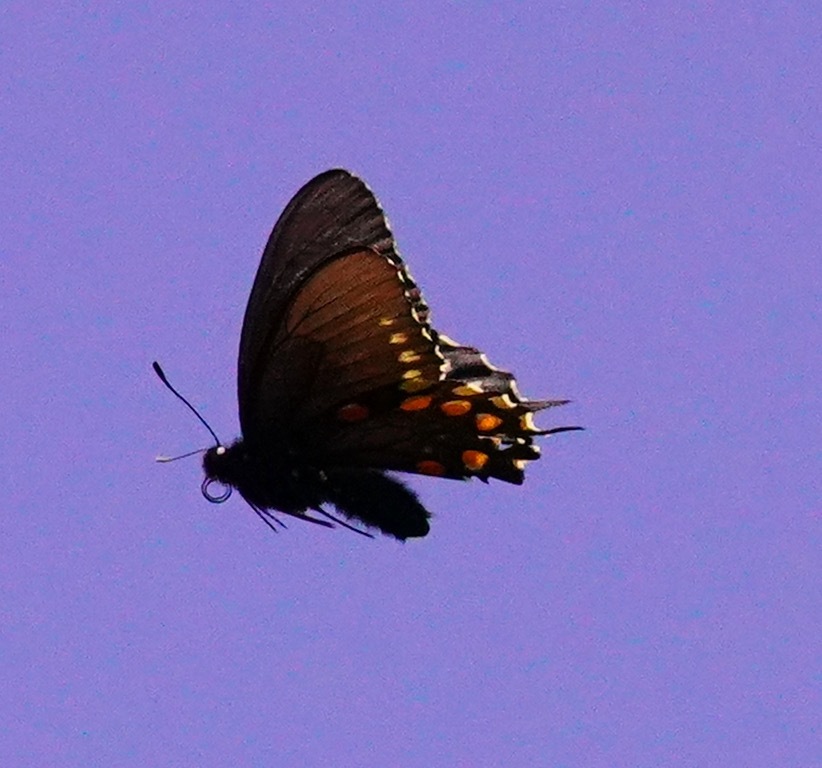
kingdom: Animalia
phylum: Arthropoda
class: Insecta
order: Lepidoptera
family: Papilionidae
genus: Battus
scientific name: Battus philenor
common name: Pipevine swallowtail
